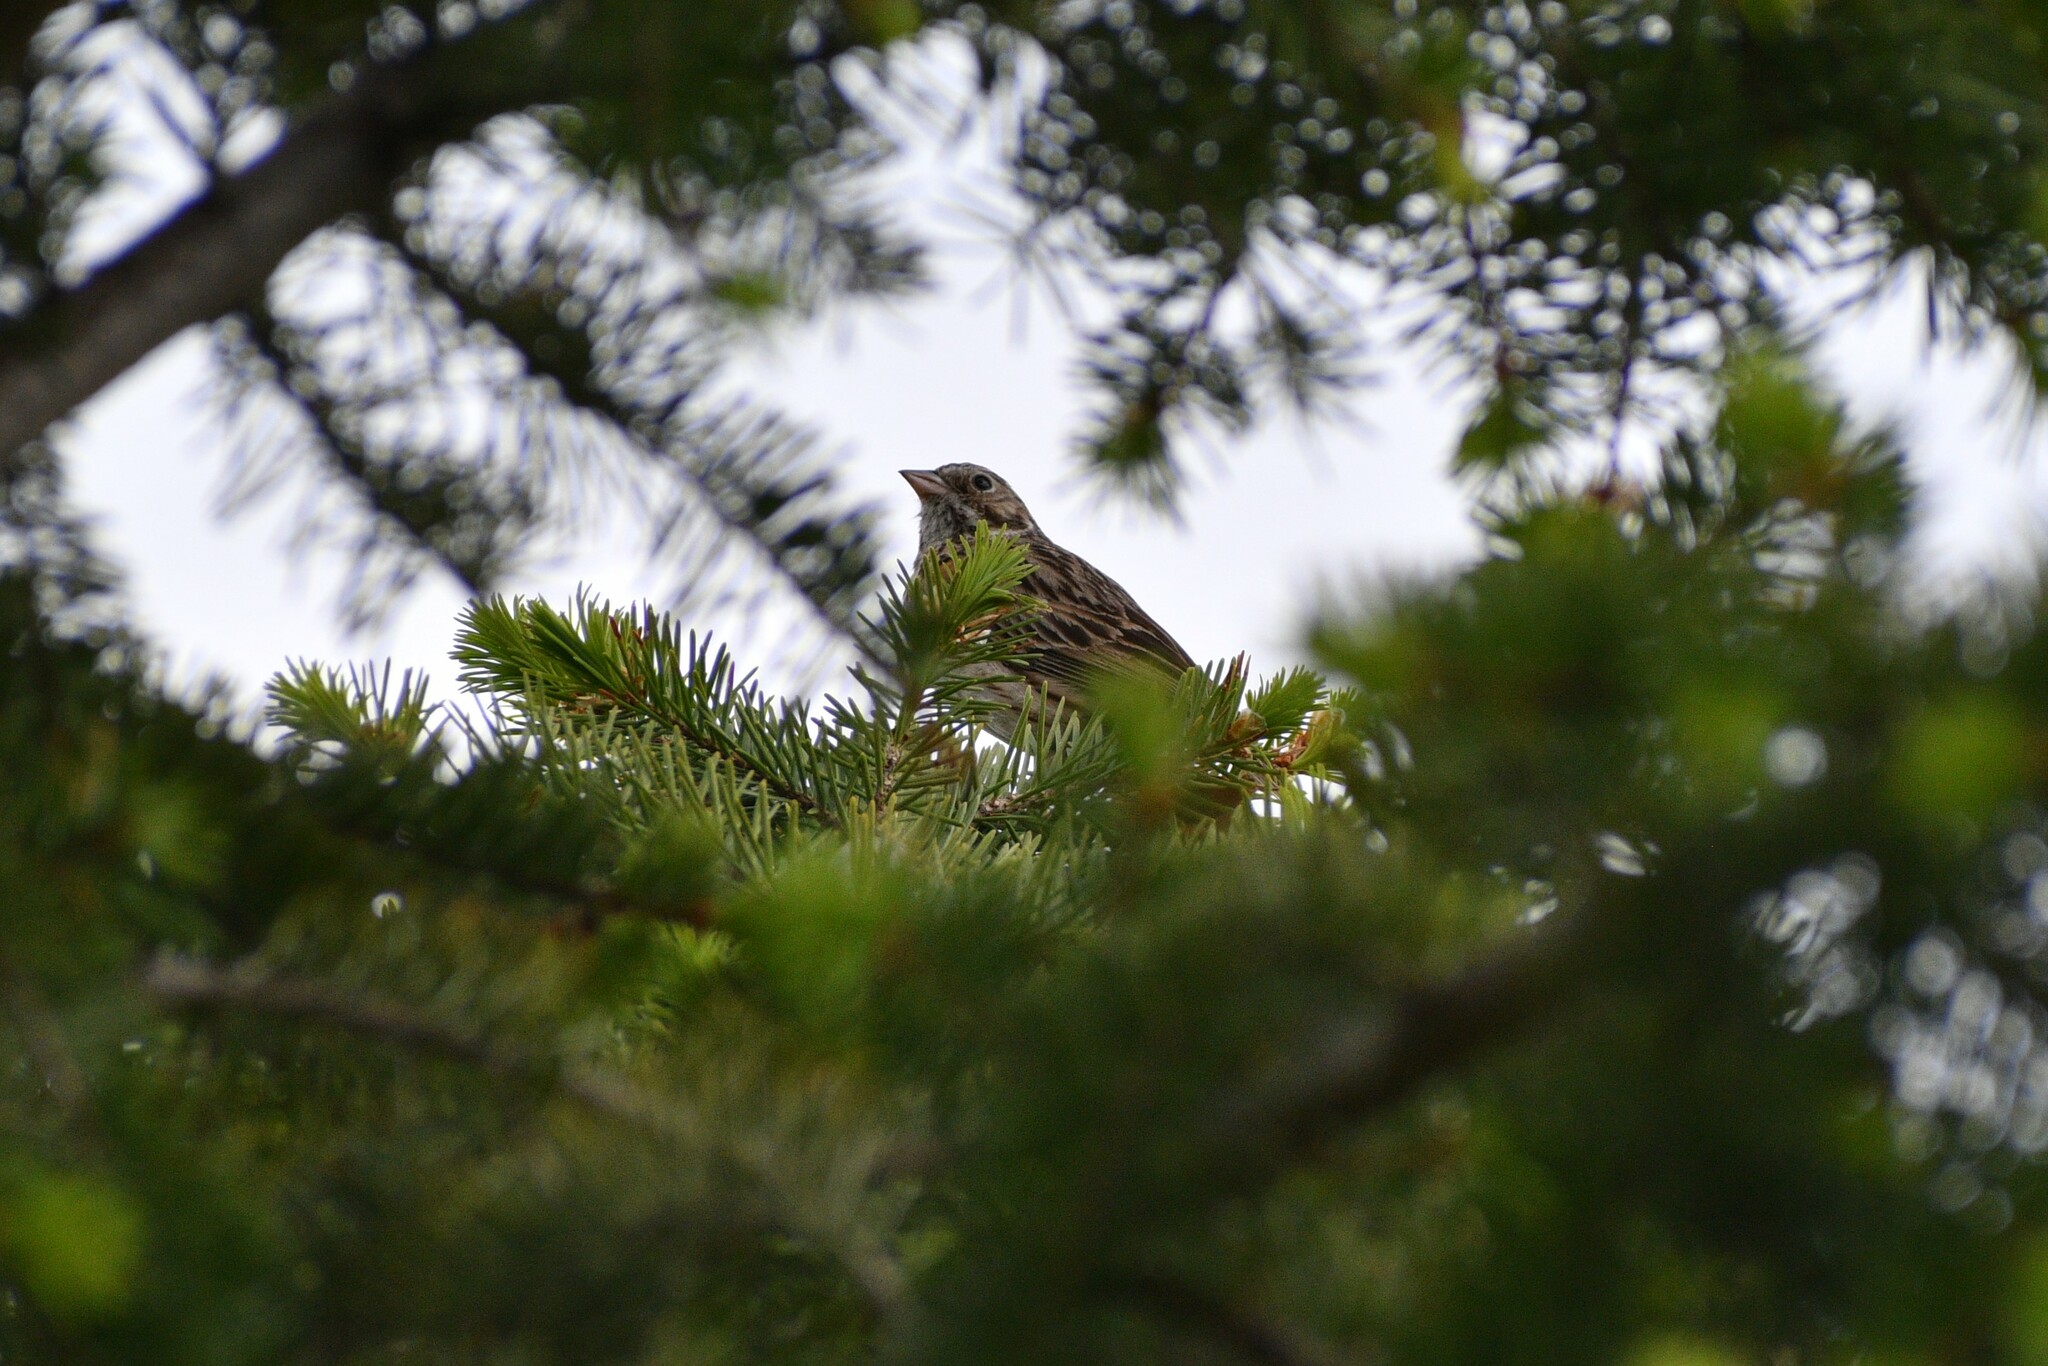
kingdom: Animalia
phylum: Chordata
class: Aves
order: Passeriformes
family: Passerellidae
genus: Pooecetes
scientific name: Pooecetes gramineus
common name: Vesper sparrow
